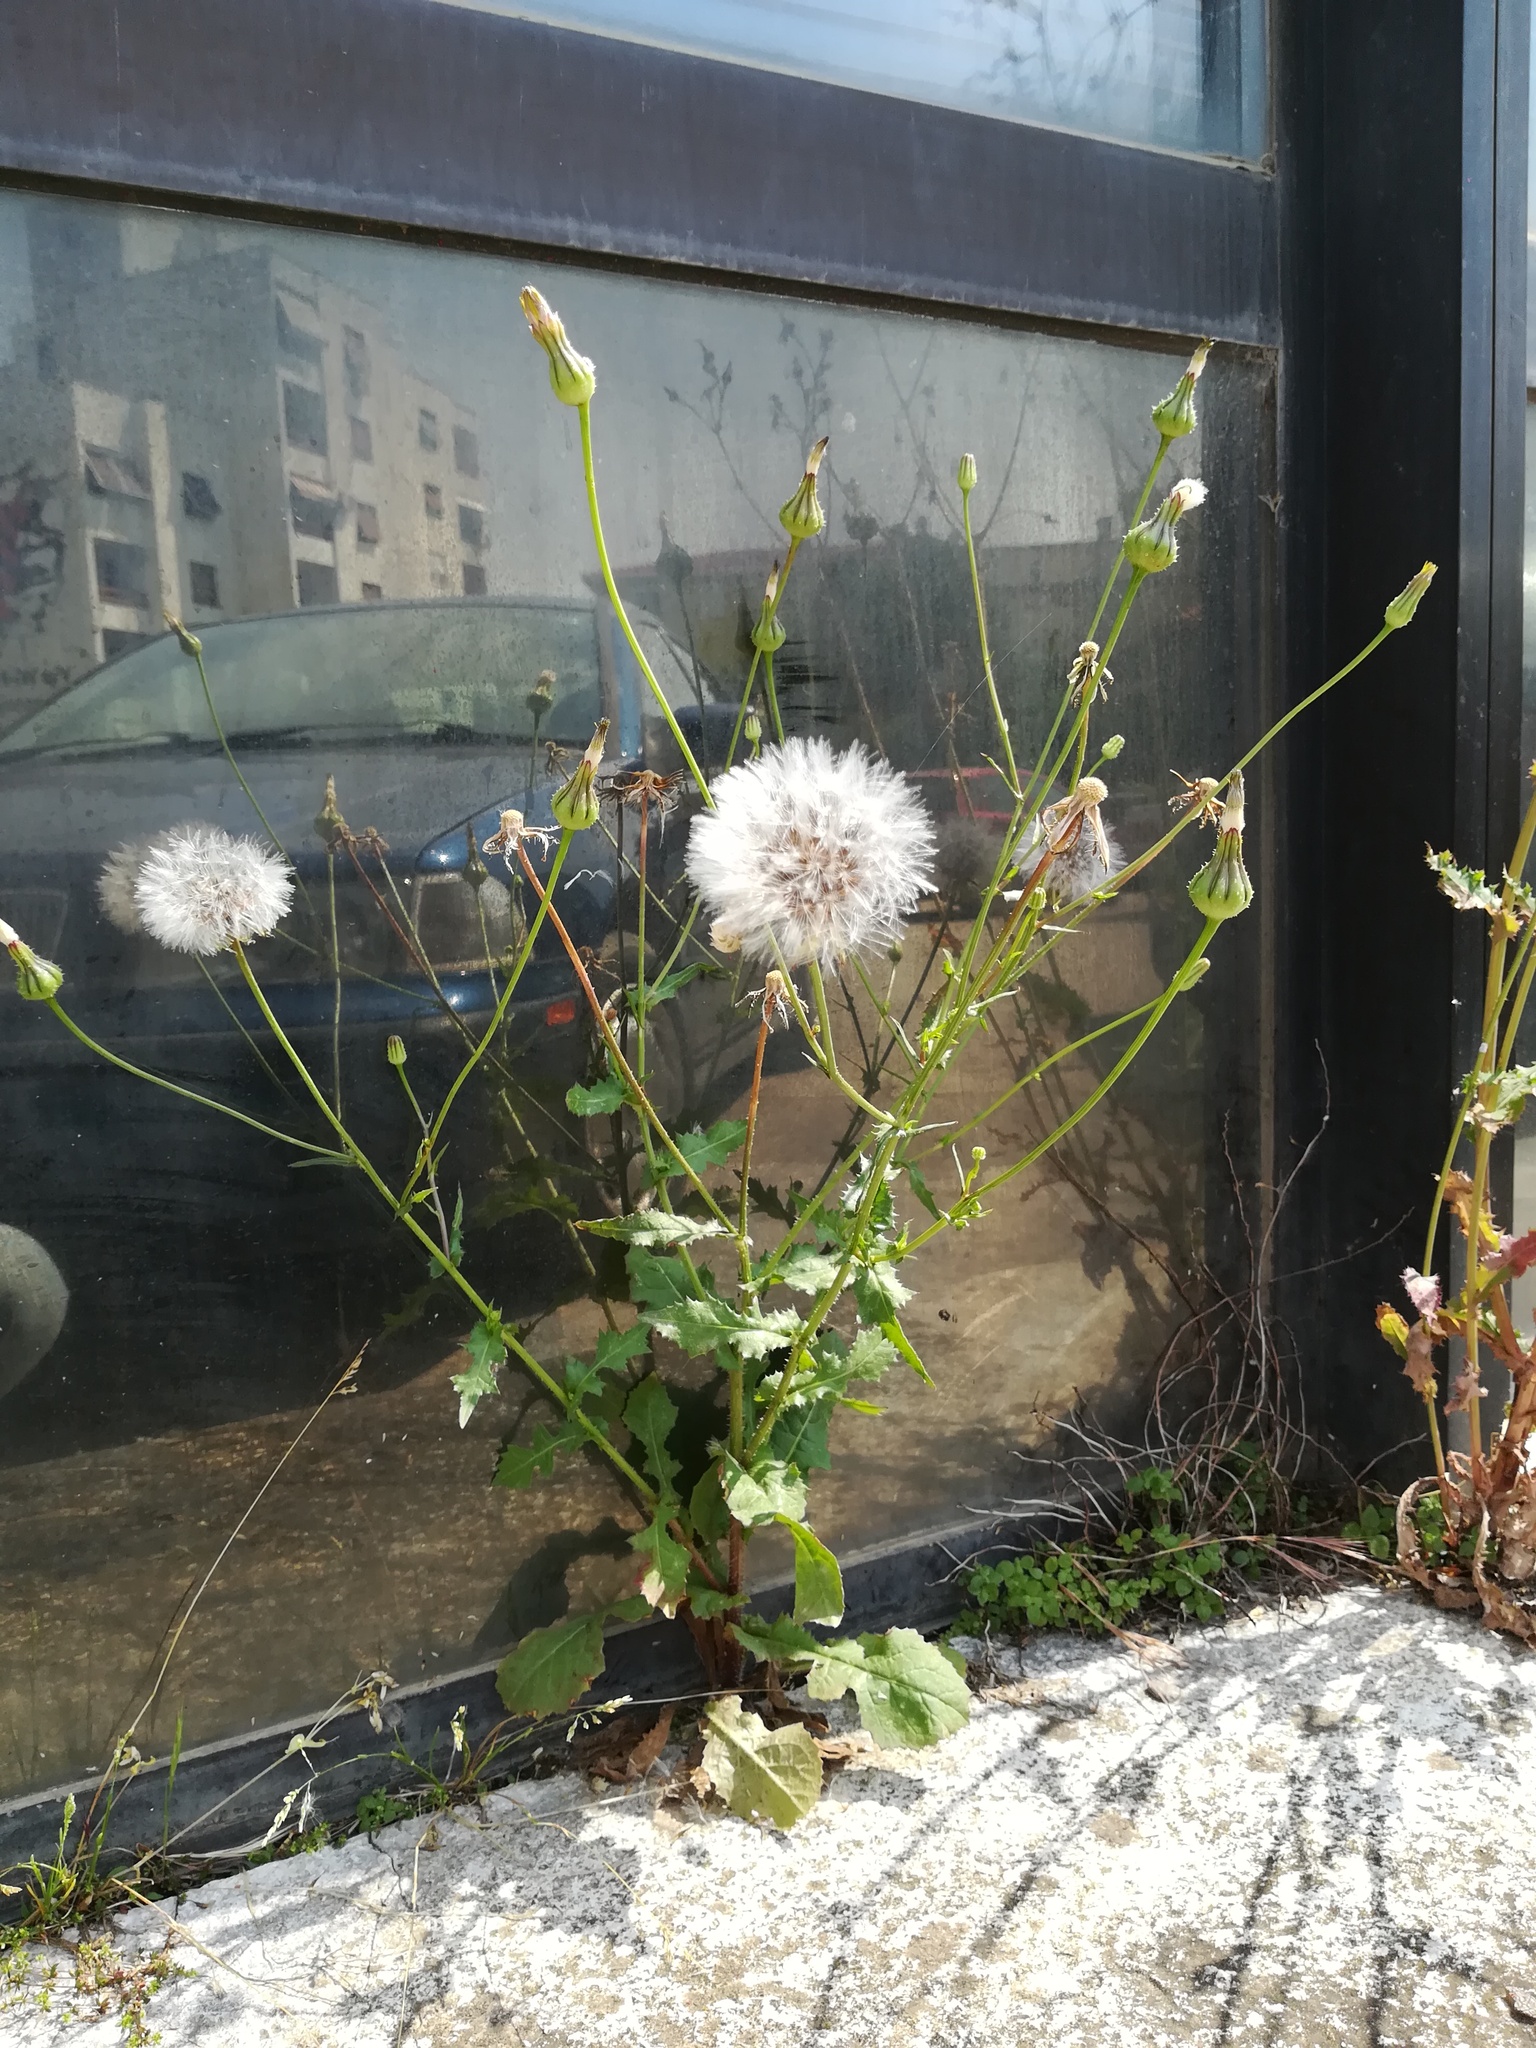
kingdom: Plantae
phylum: Tracheophyta
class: Magnoliopsida
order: Asterales
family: Asteraceae
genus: Urospermum
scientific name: Urospermum picroides
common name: False hawkbit
